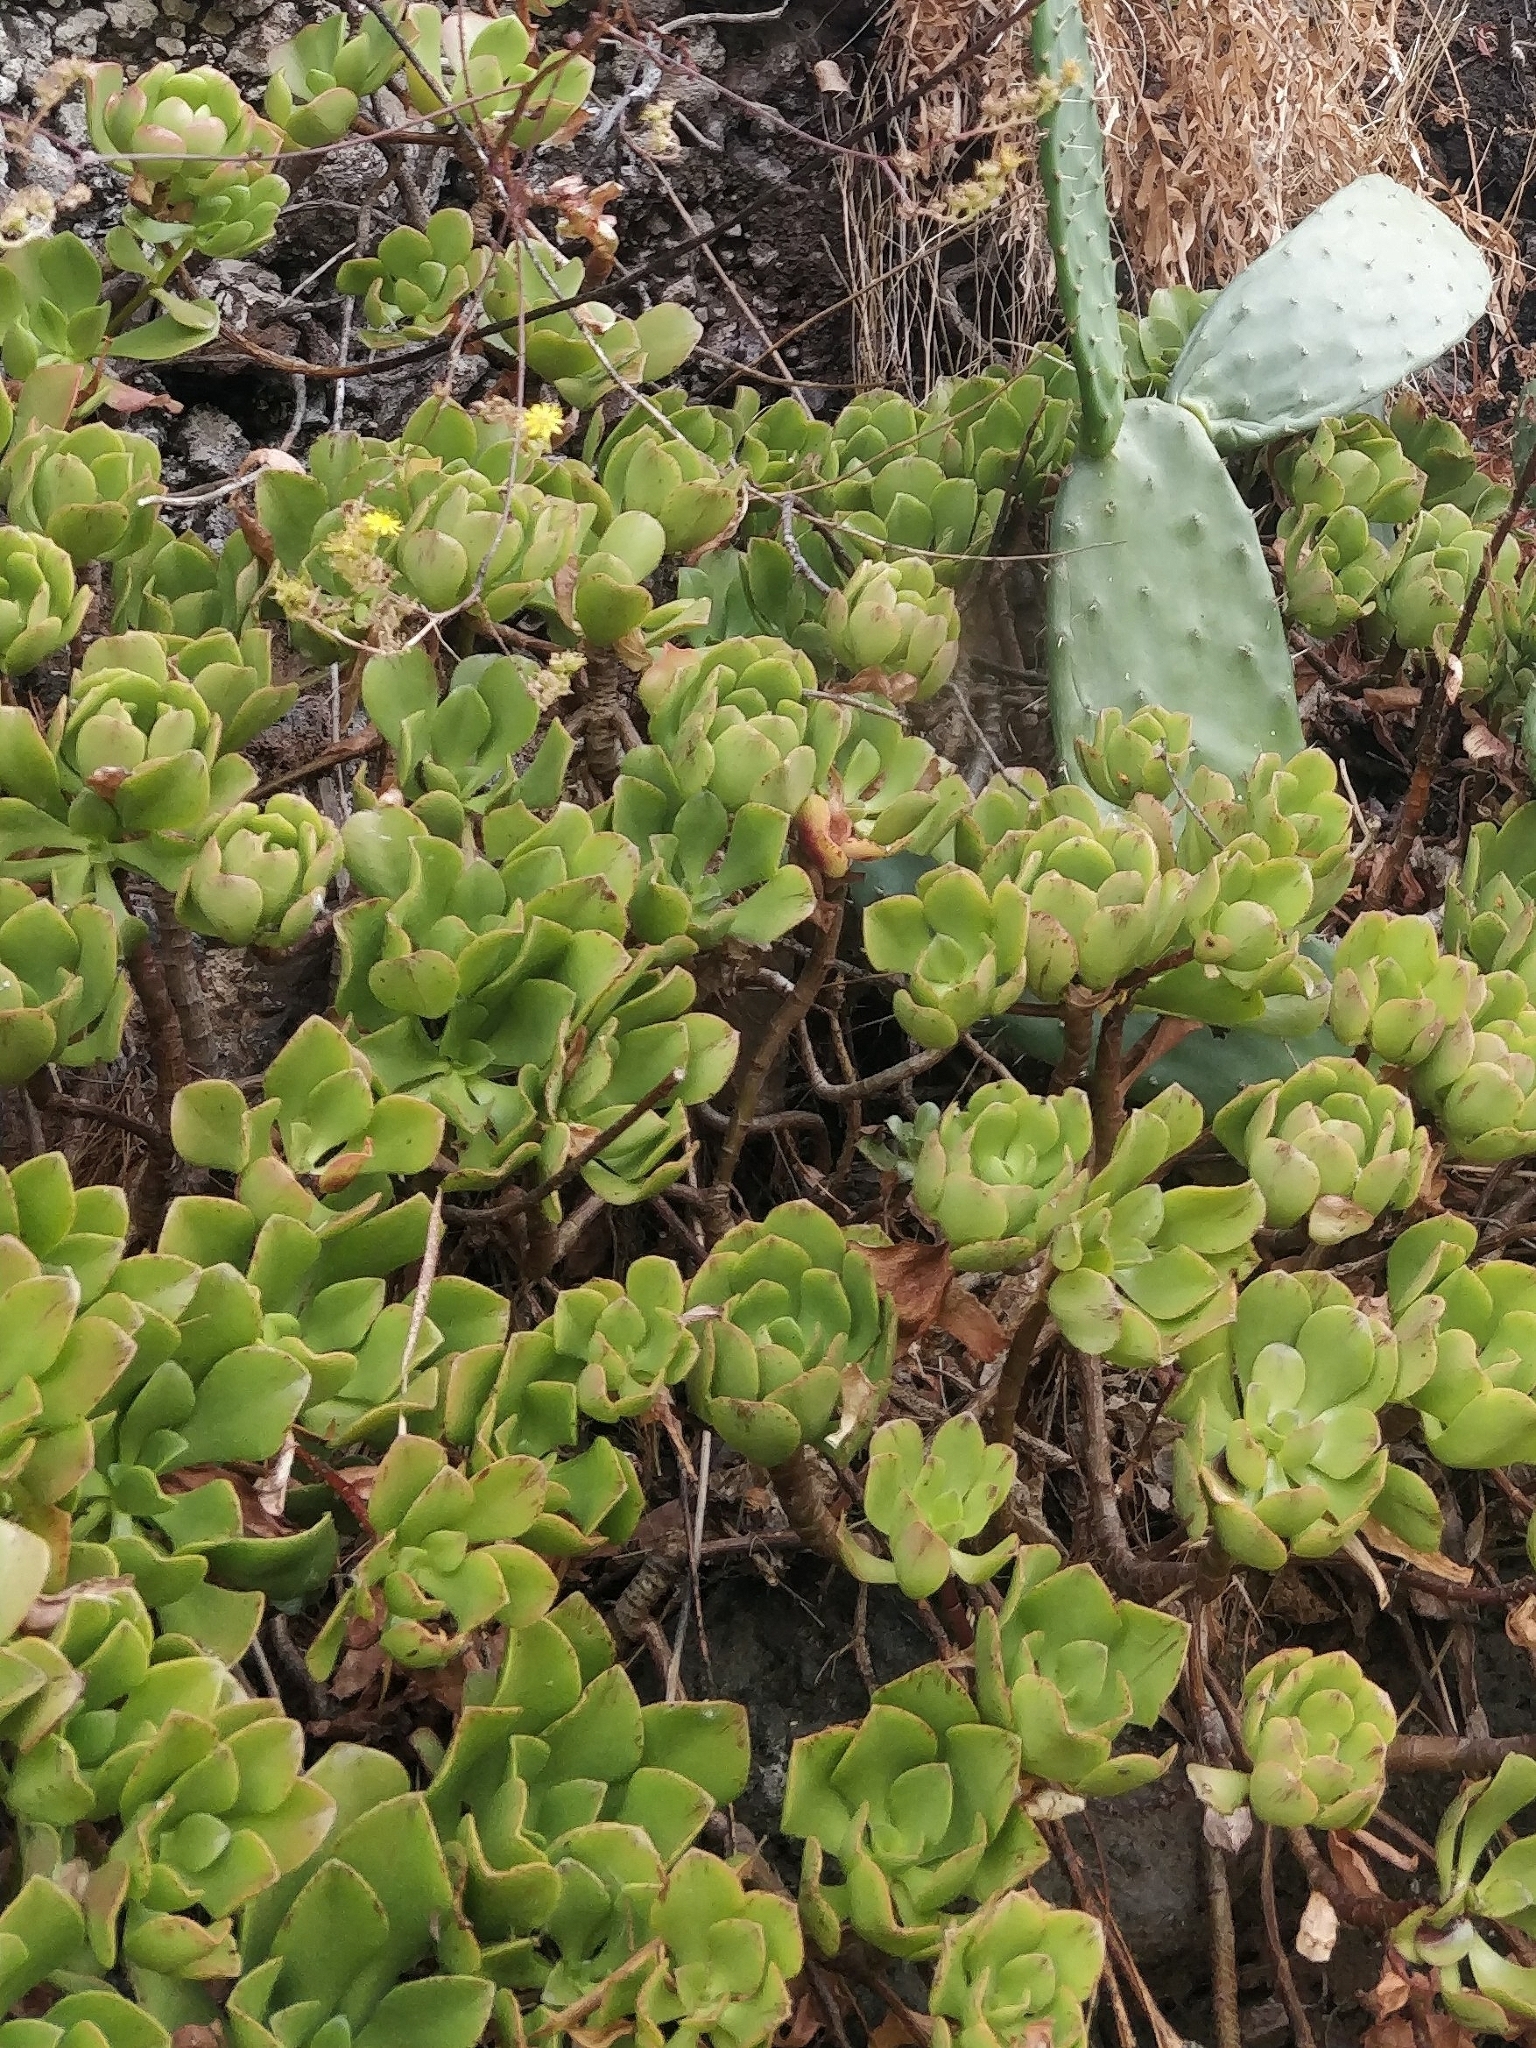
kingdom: Plantae
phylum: Tracheophyta
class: Magnoliopsida
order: Saxifragales
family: Crassulaceae
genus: Aeonium
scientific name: Aeonium glutinosum
